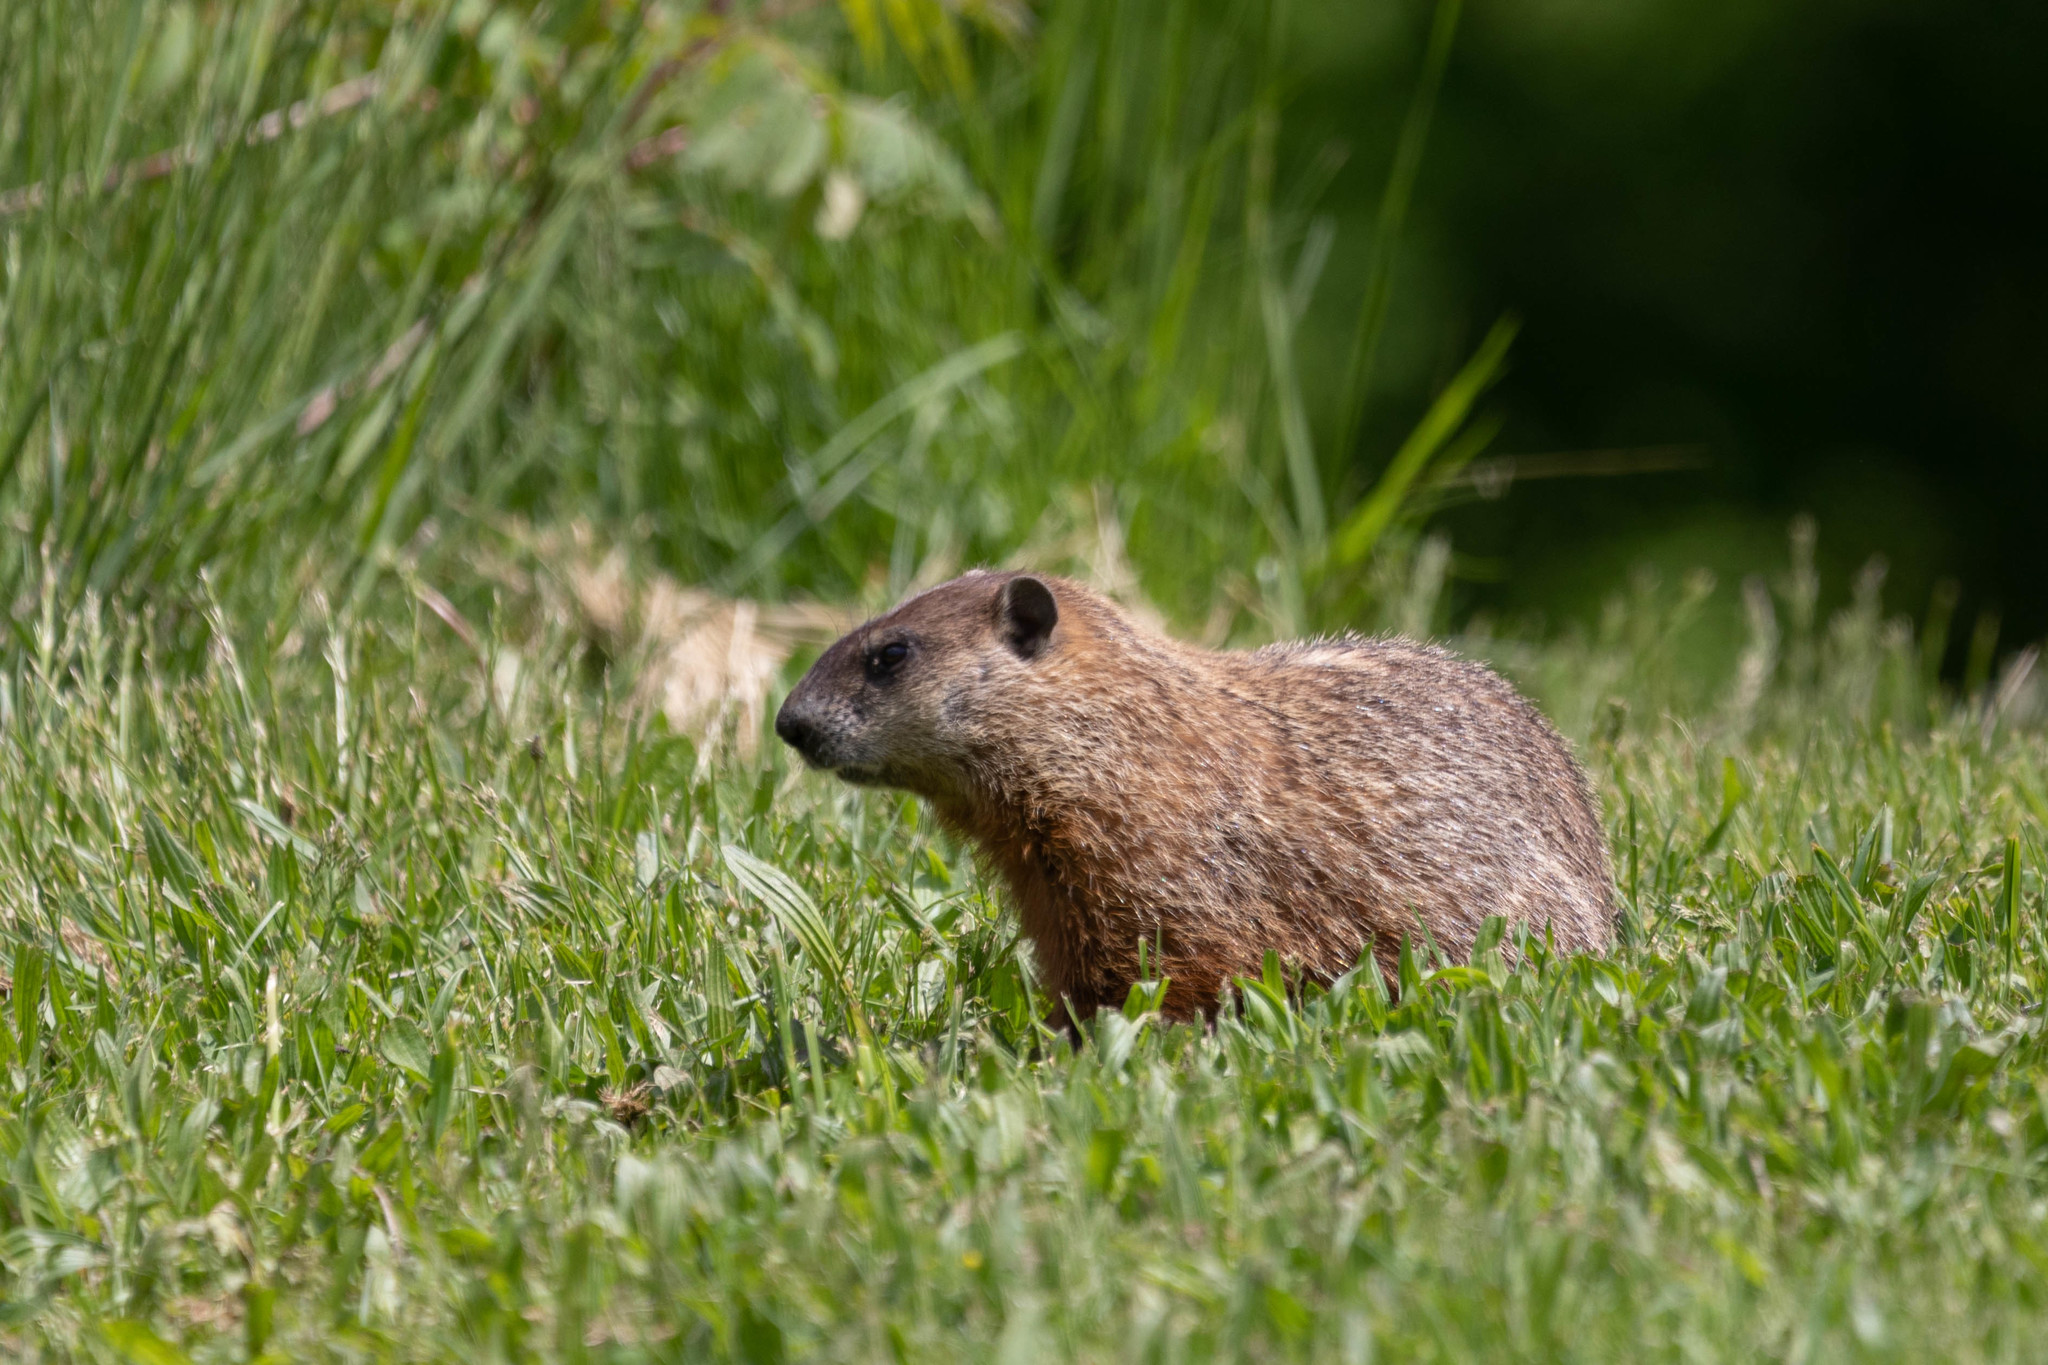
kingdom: Animalia
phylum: Chordata
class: Mammalia
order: Rodentia
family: Sciuridae
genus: Marmota
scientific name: Marmota monax
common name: Groundhog
